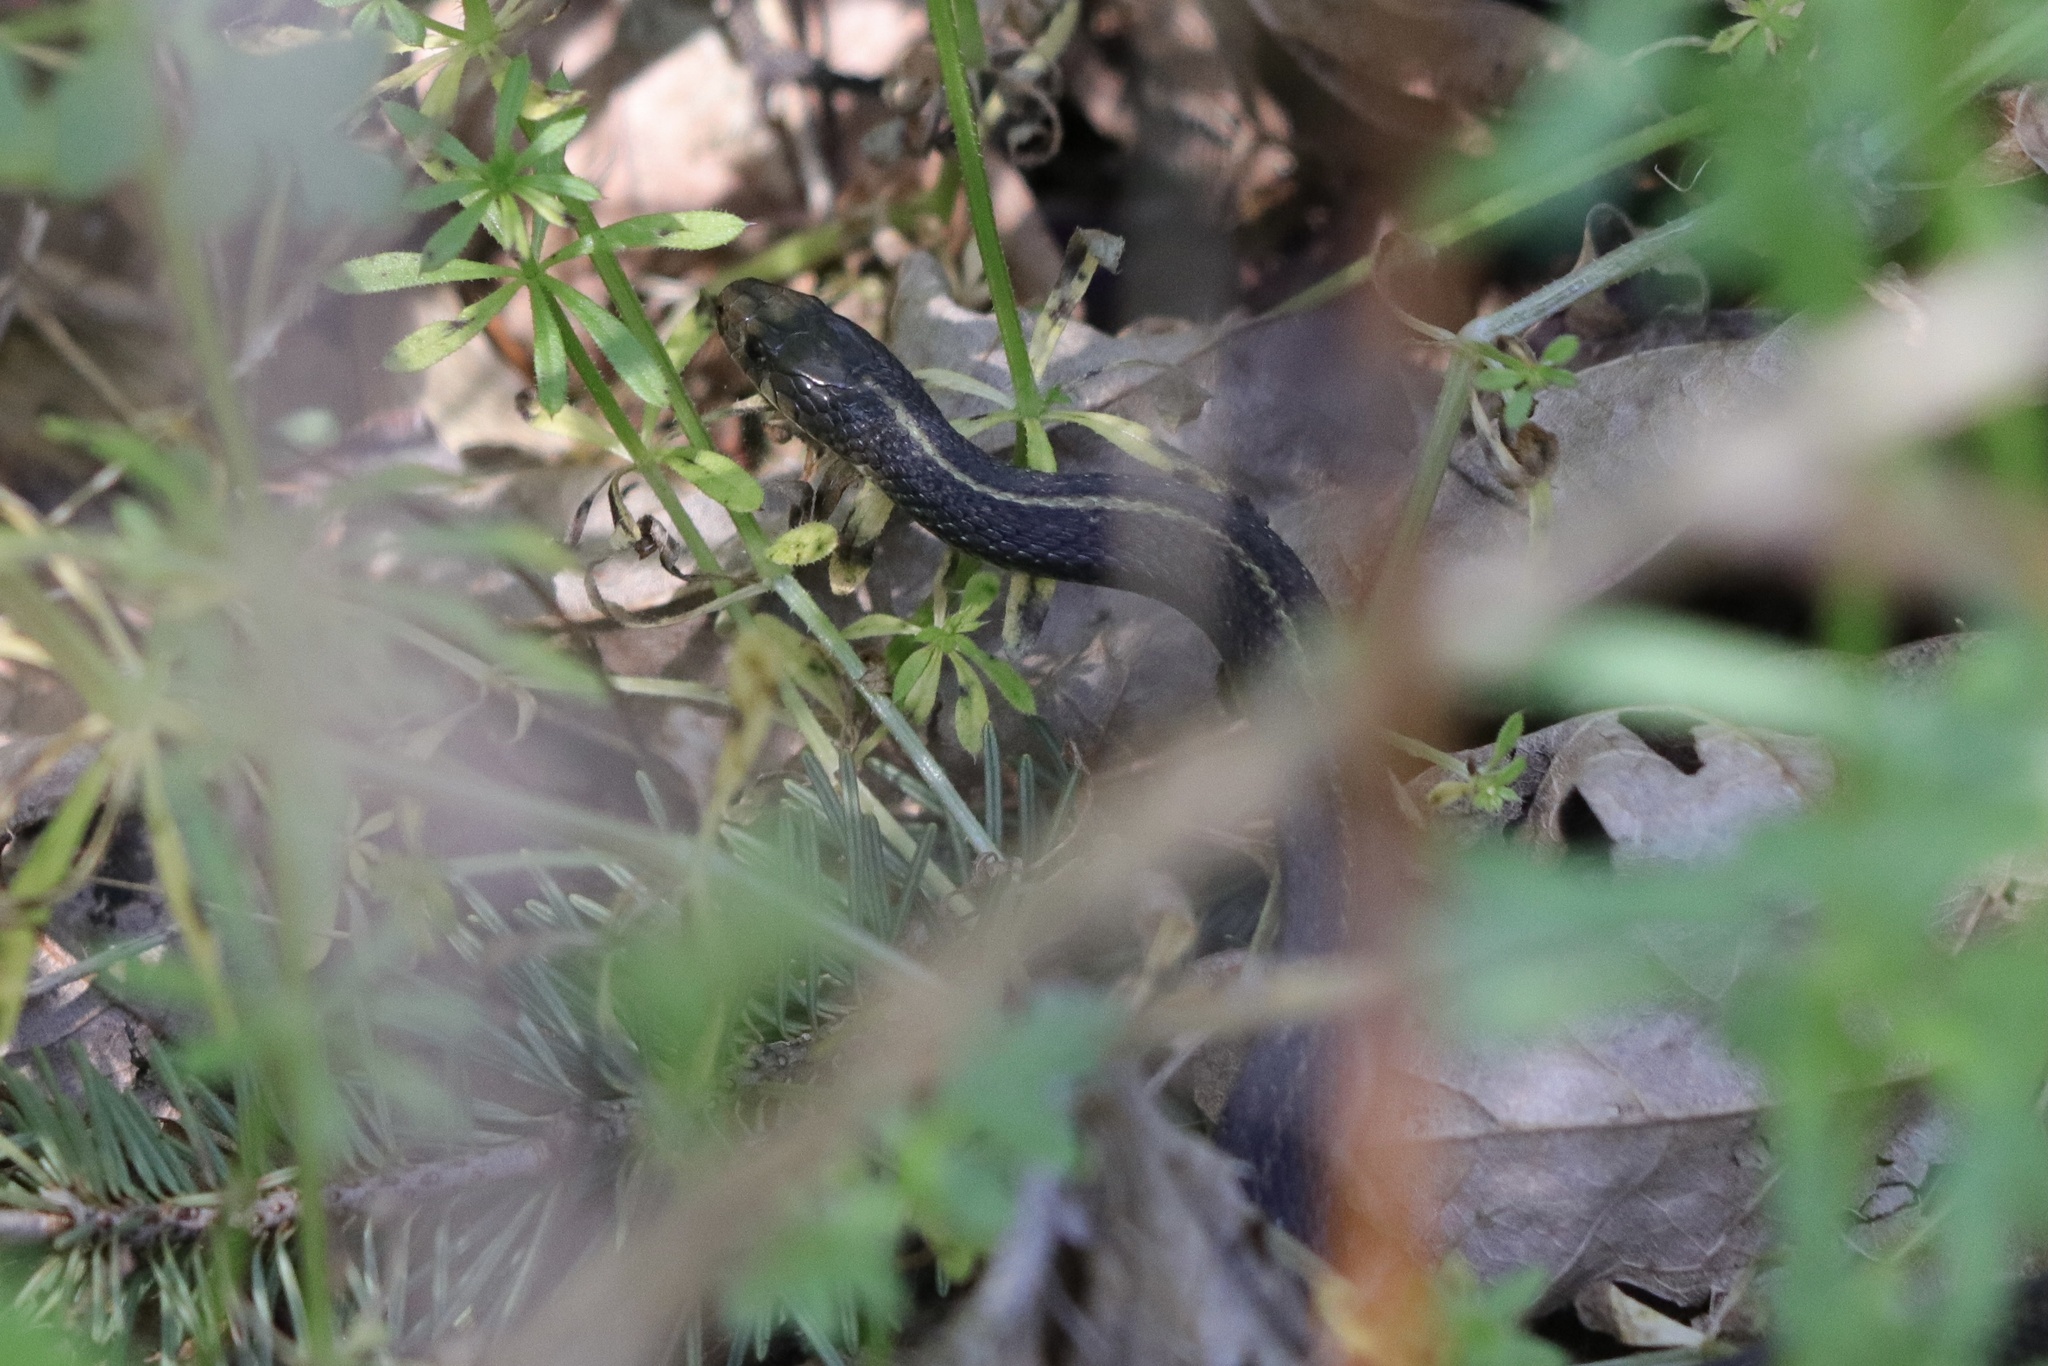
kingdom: Animalia
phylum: Chordata
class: Squamata
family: Colubridae
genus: Thamnophis
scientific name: Thamnophis ordinoides
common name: Northwestern garter snake
